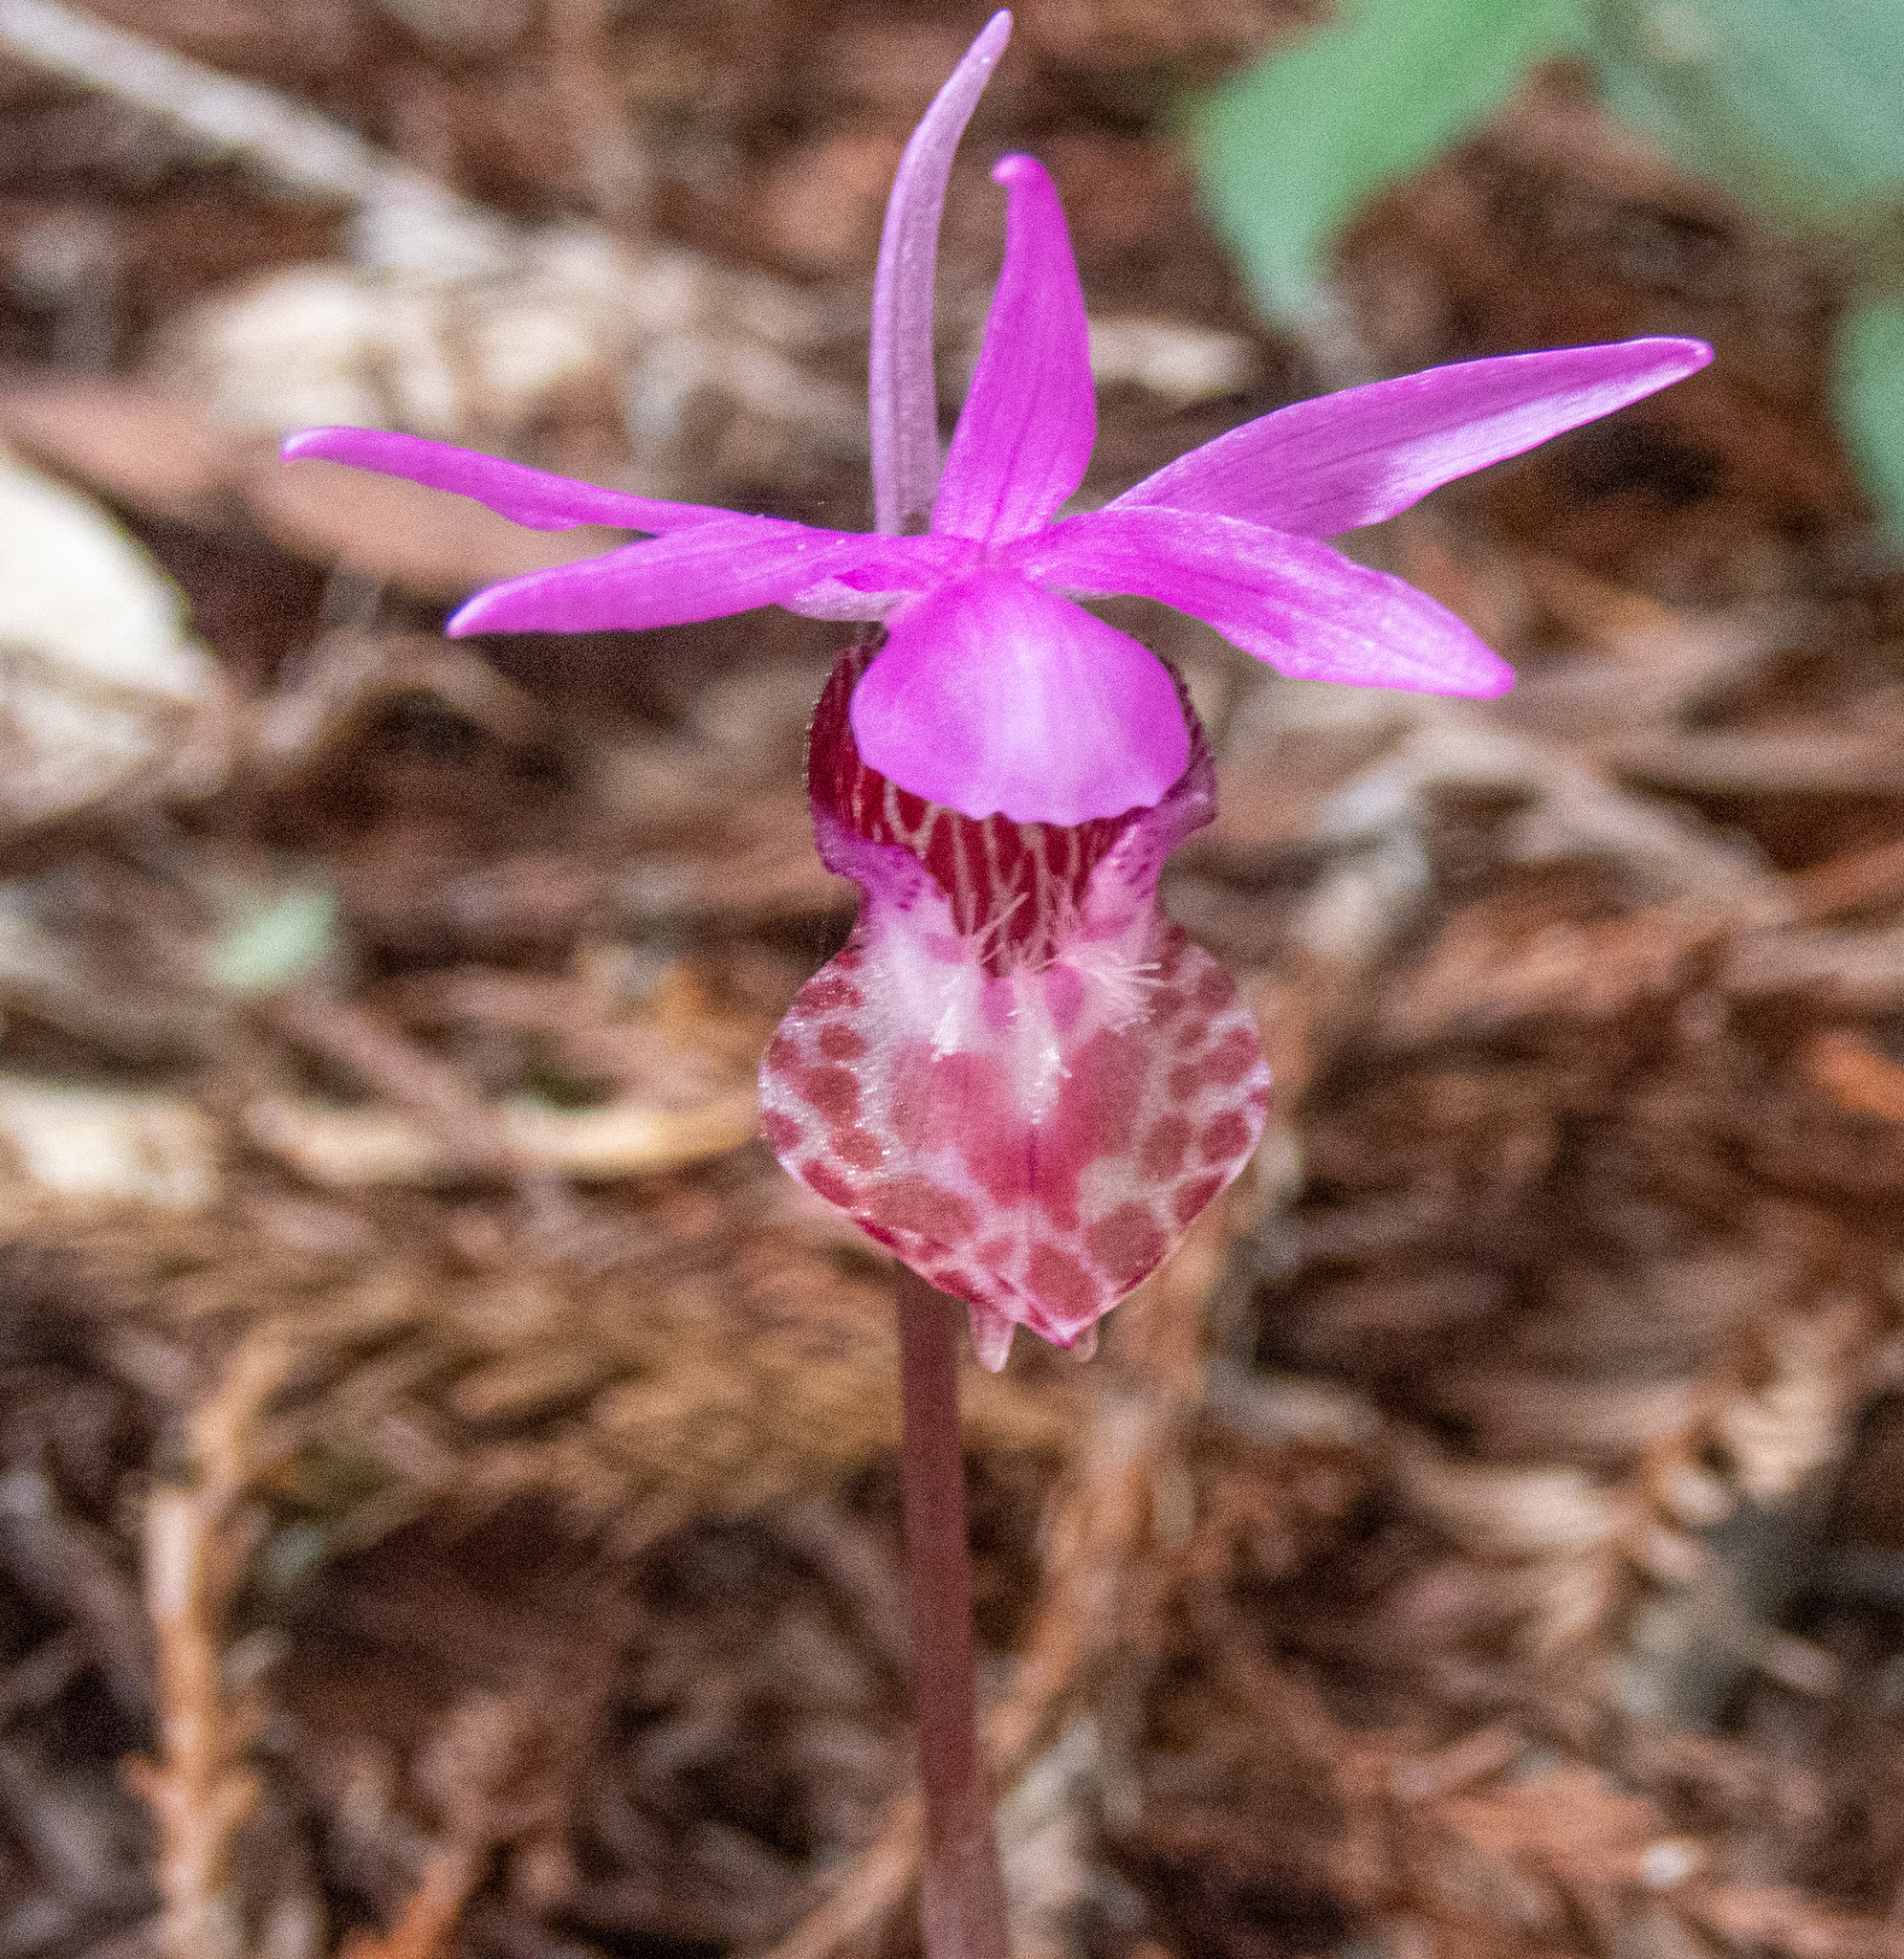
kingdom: Plantae
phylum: Tracheophyta
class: Liliopsida
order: Asparagales
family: Orchidaceae
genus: Calypso
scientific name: Calypso bulbosa
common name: Calypso
